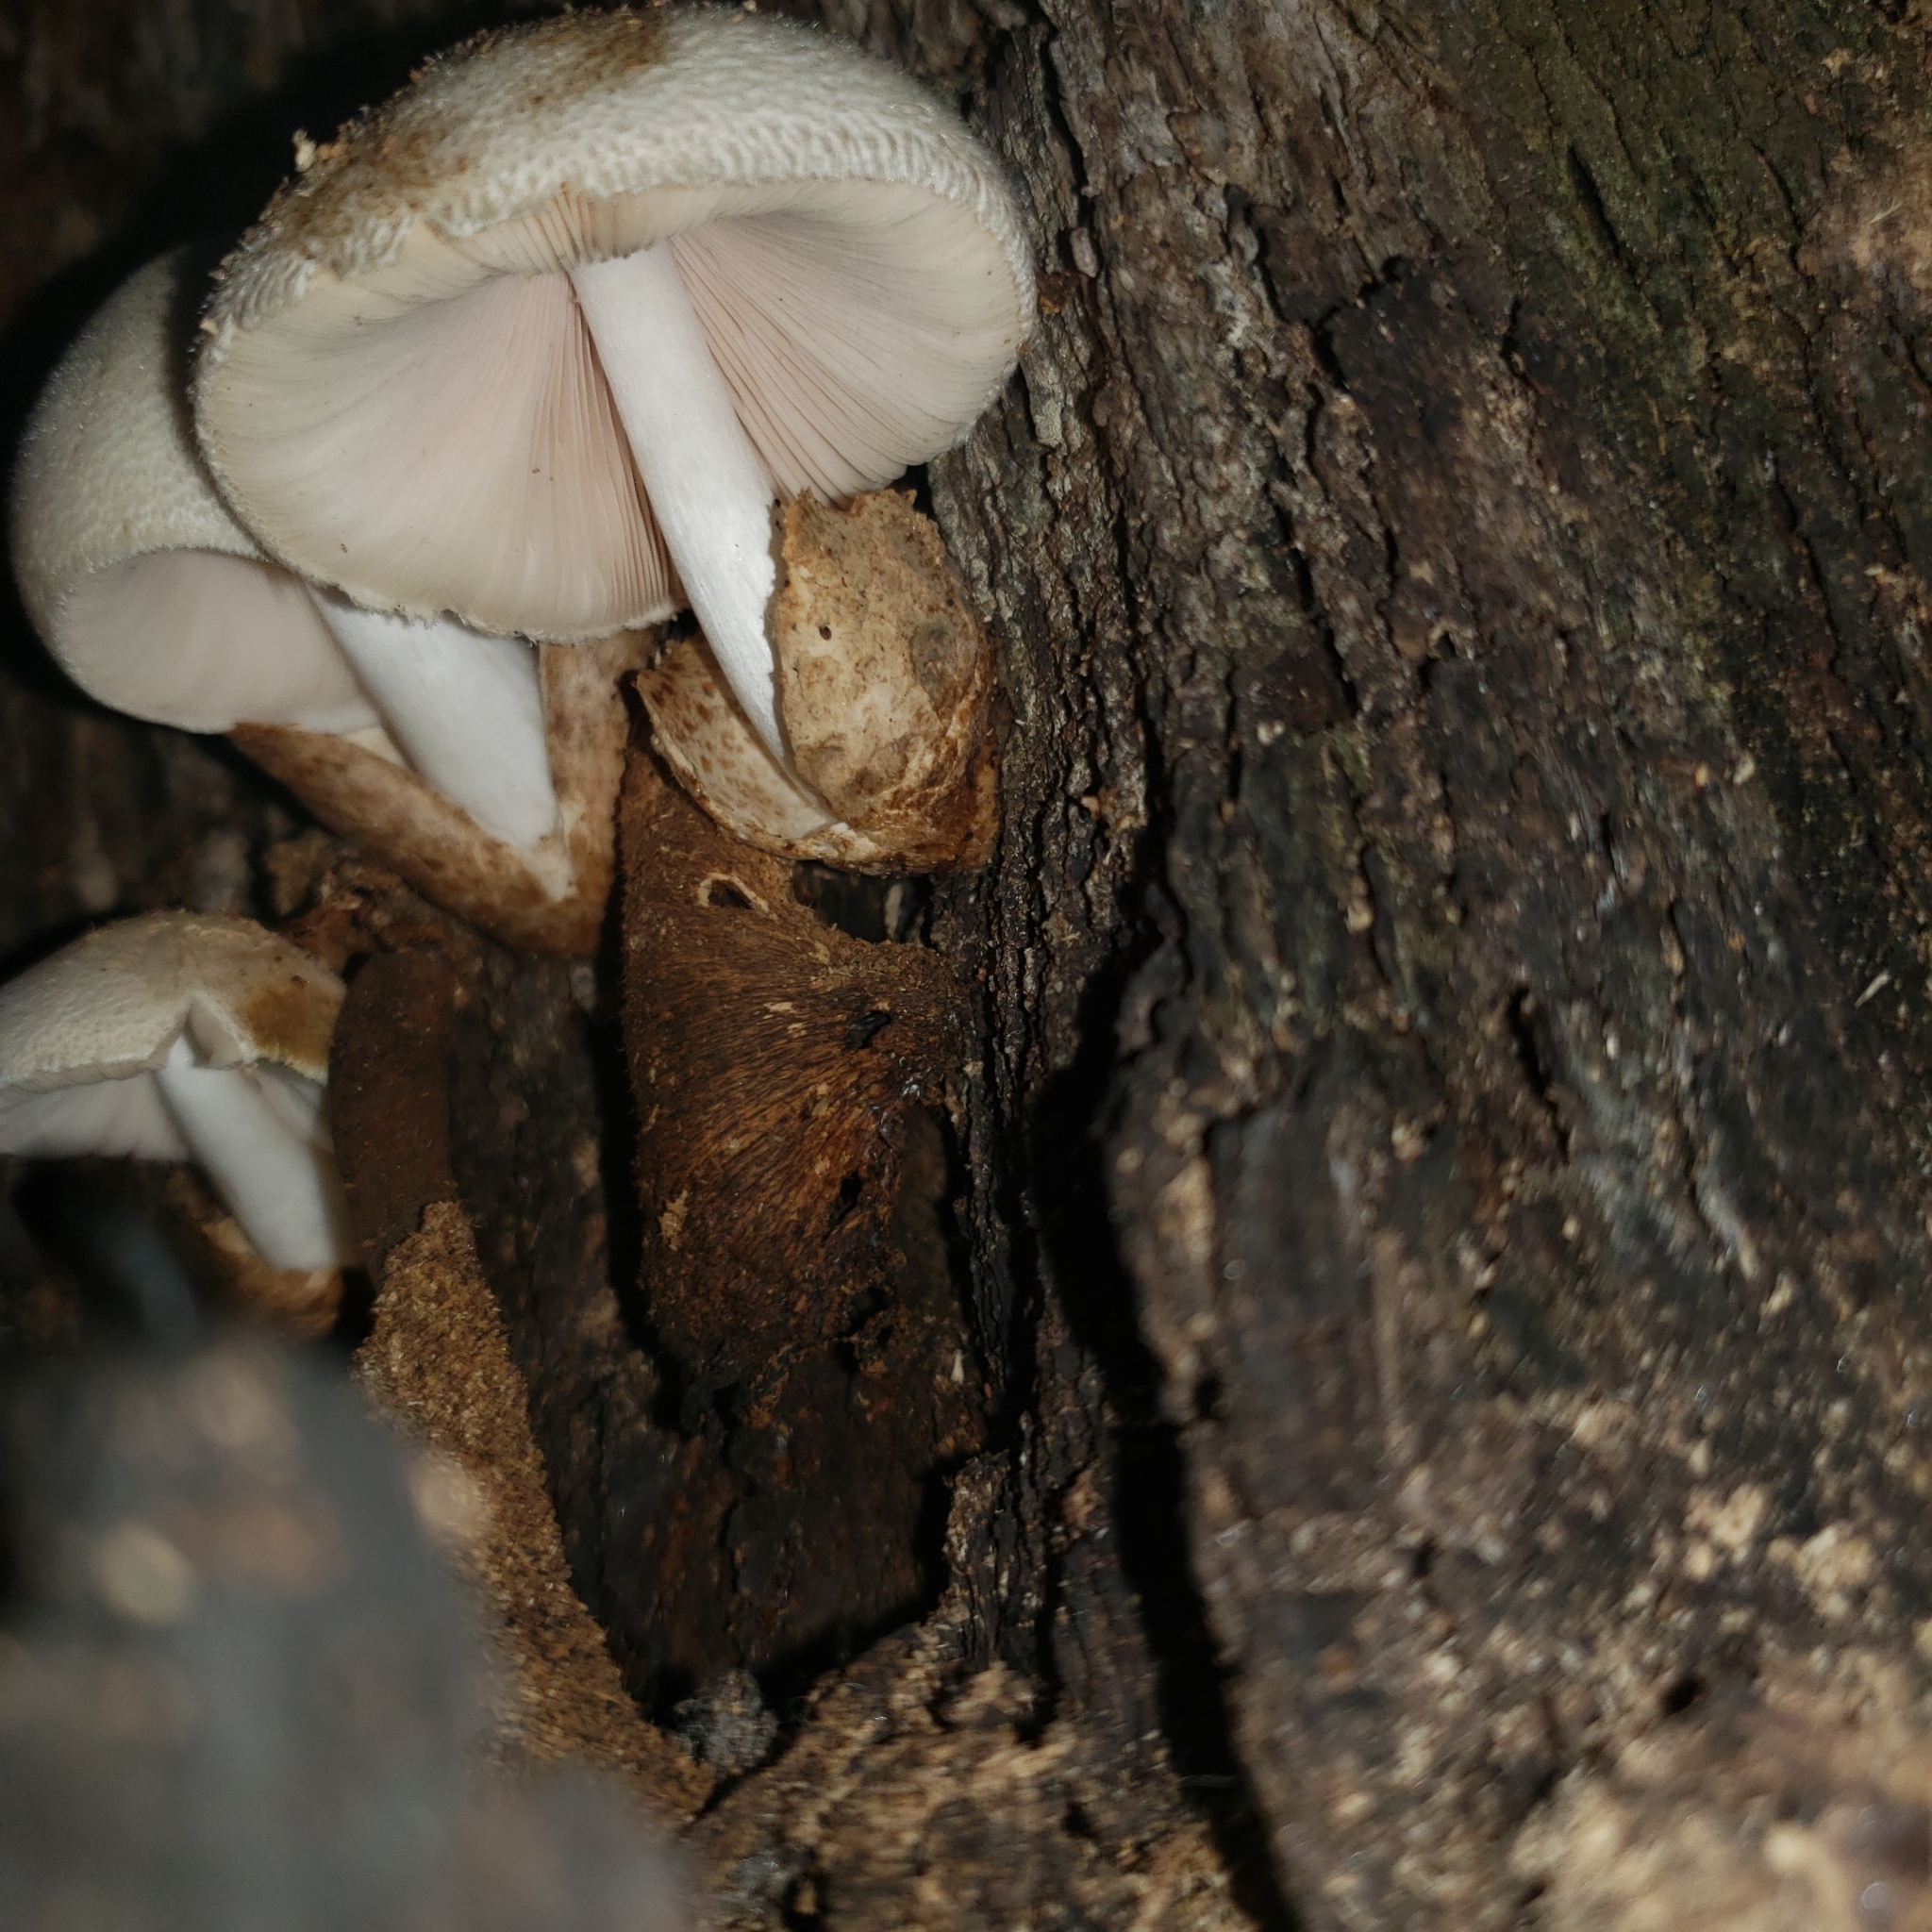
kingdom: Fungi
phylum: Basidiomycota
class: Agaricomycetes
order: Agaricales
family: Pluteaceae
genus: Volvariella
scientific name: Volvariella bombycina
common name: Silky rosegill
